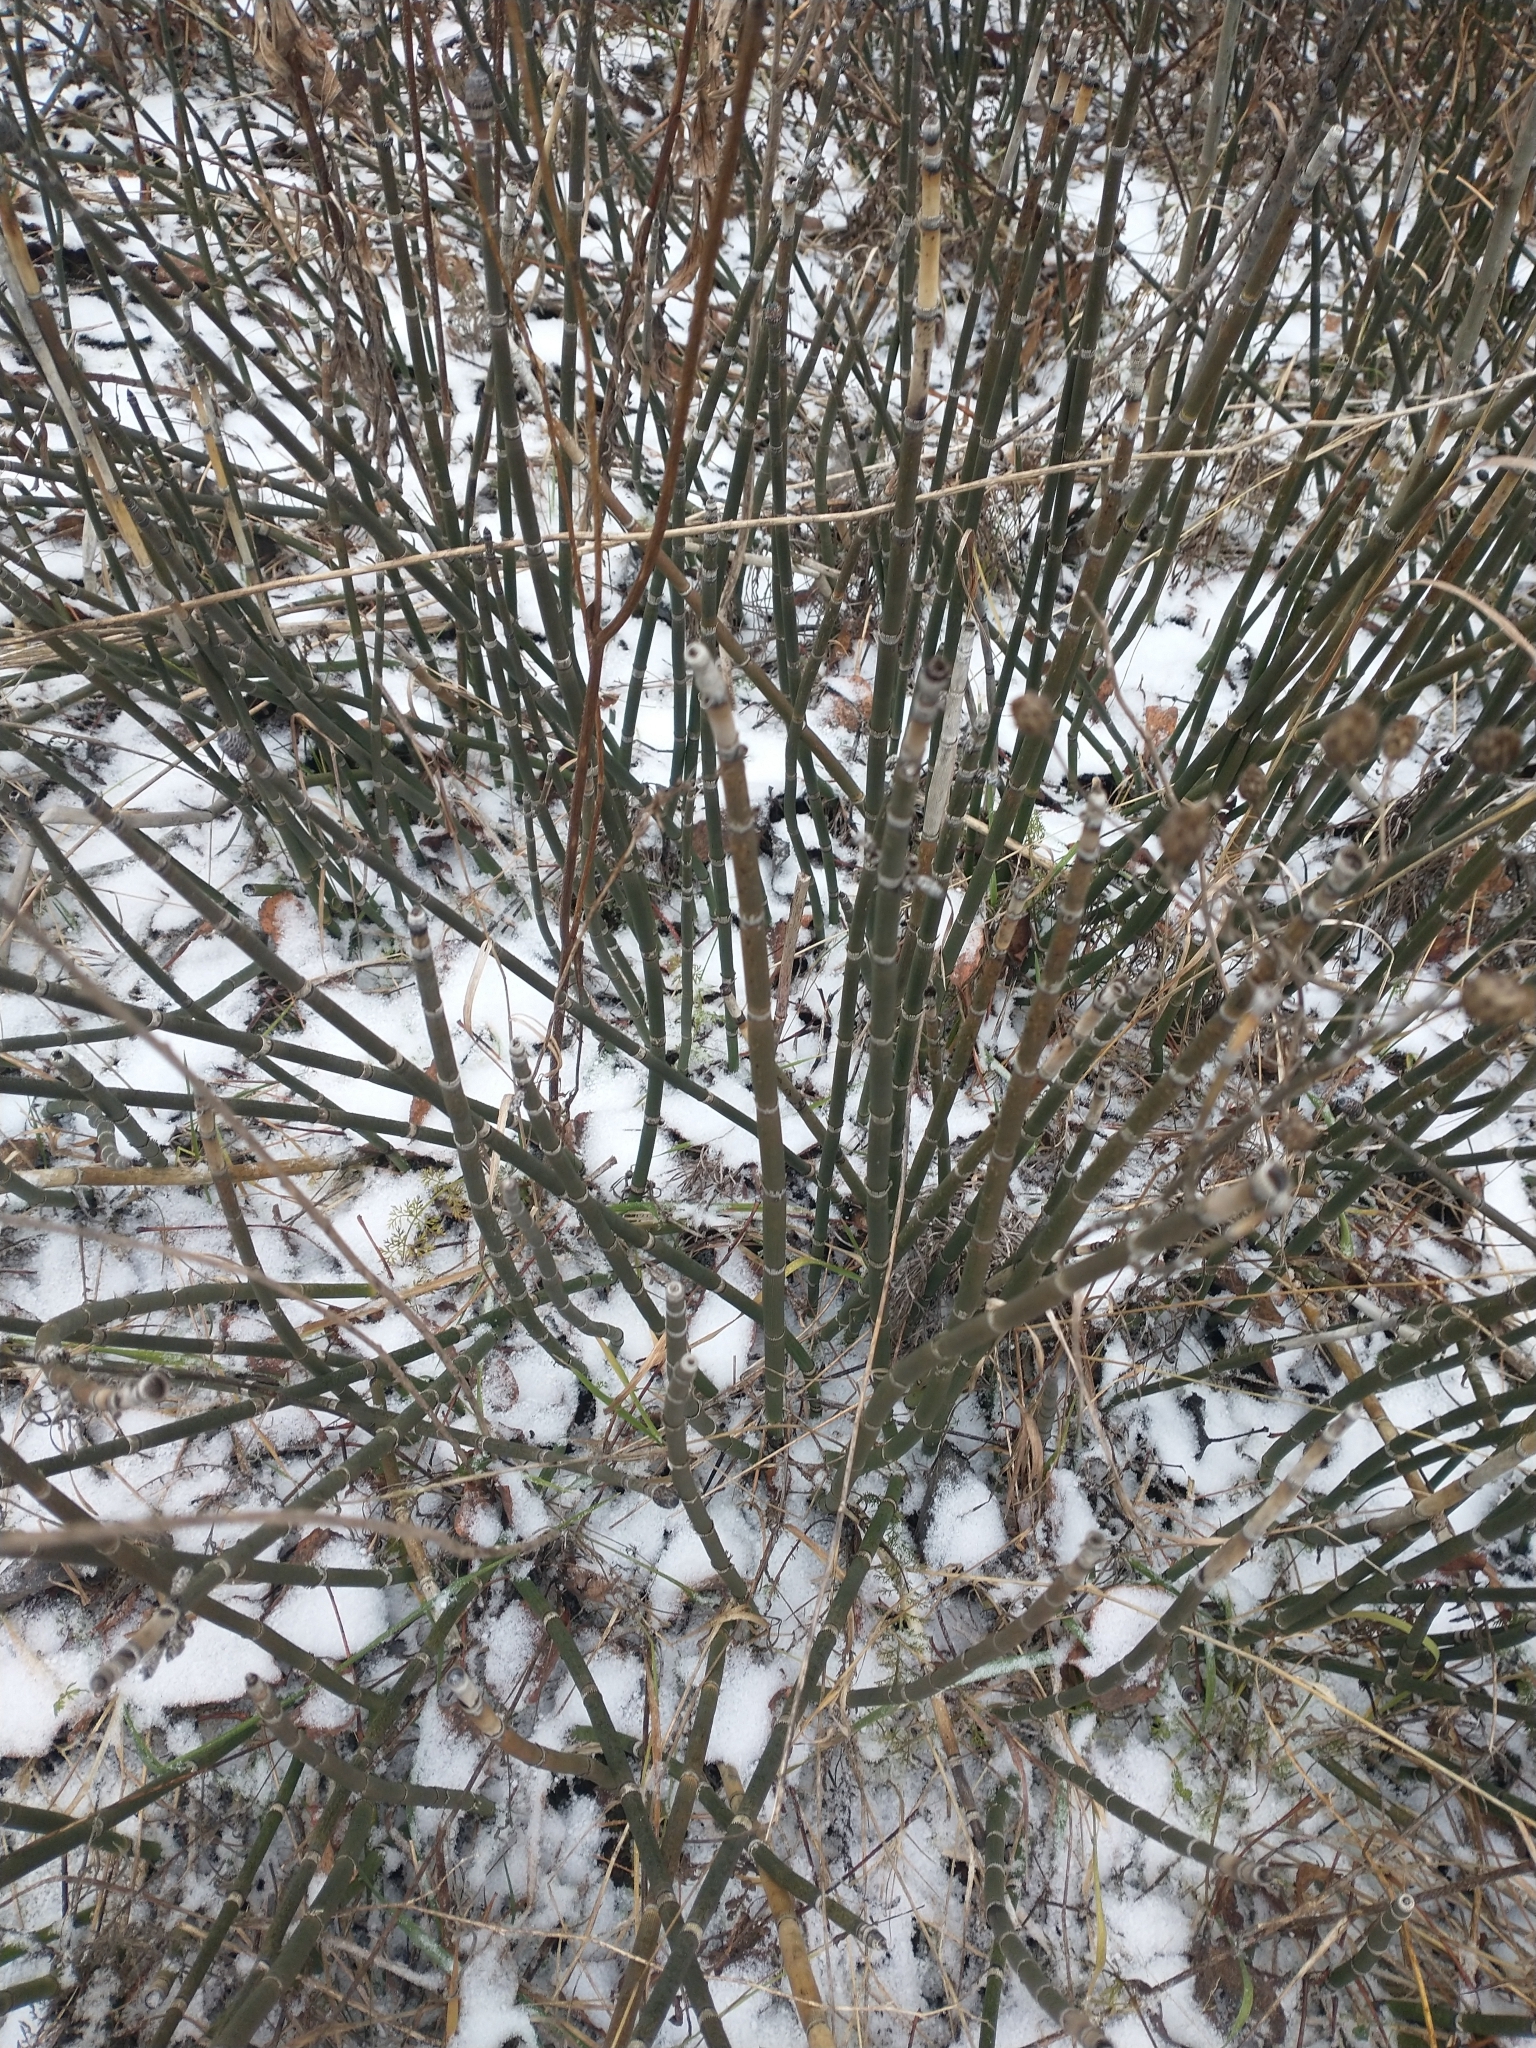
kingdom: Plantae
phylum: Tracheophyta
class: Polypodiopsida
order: Equisetales
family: Equisetaceae
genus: Equisetum
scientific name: Equisetum hyemale
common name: Rough horsetail
